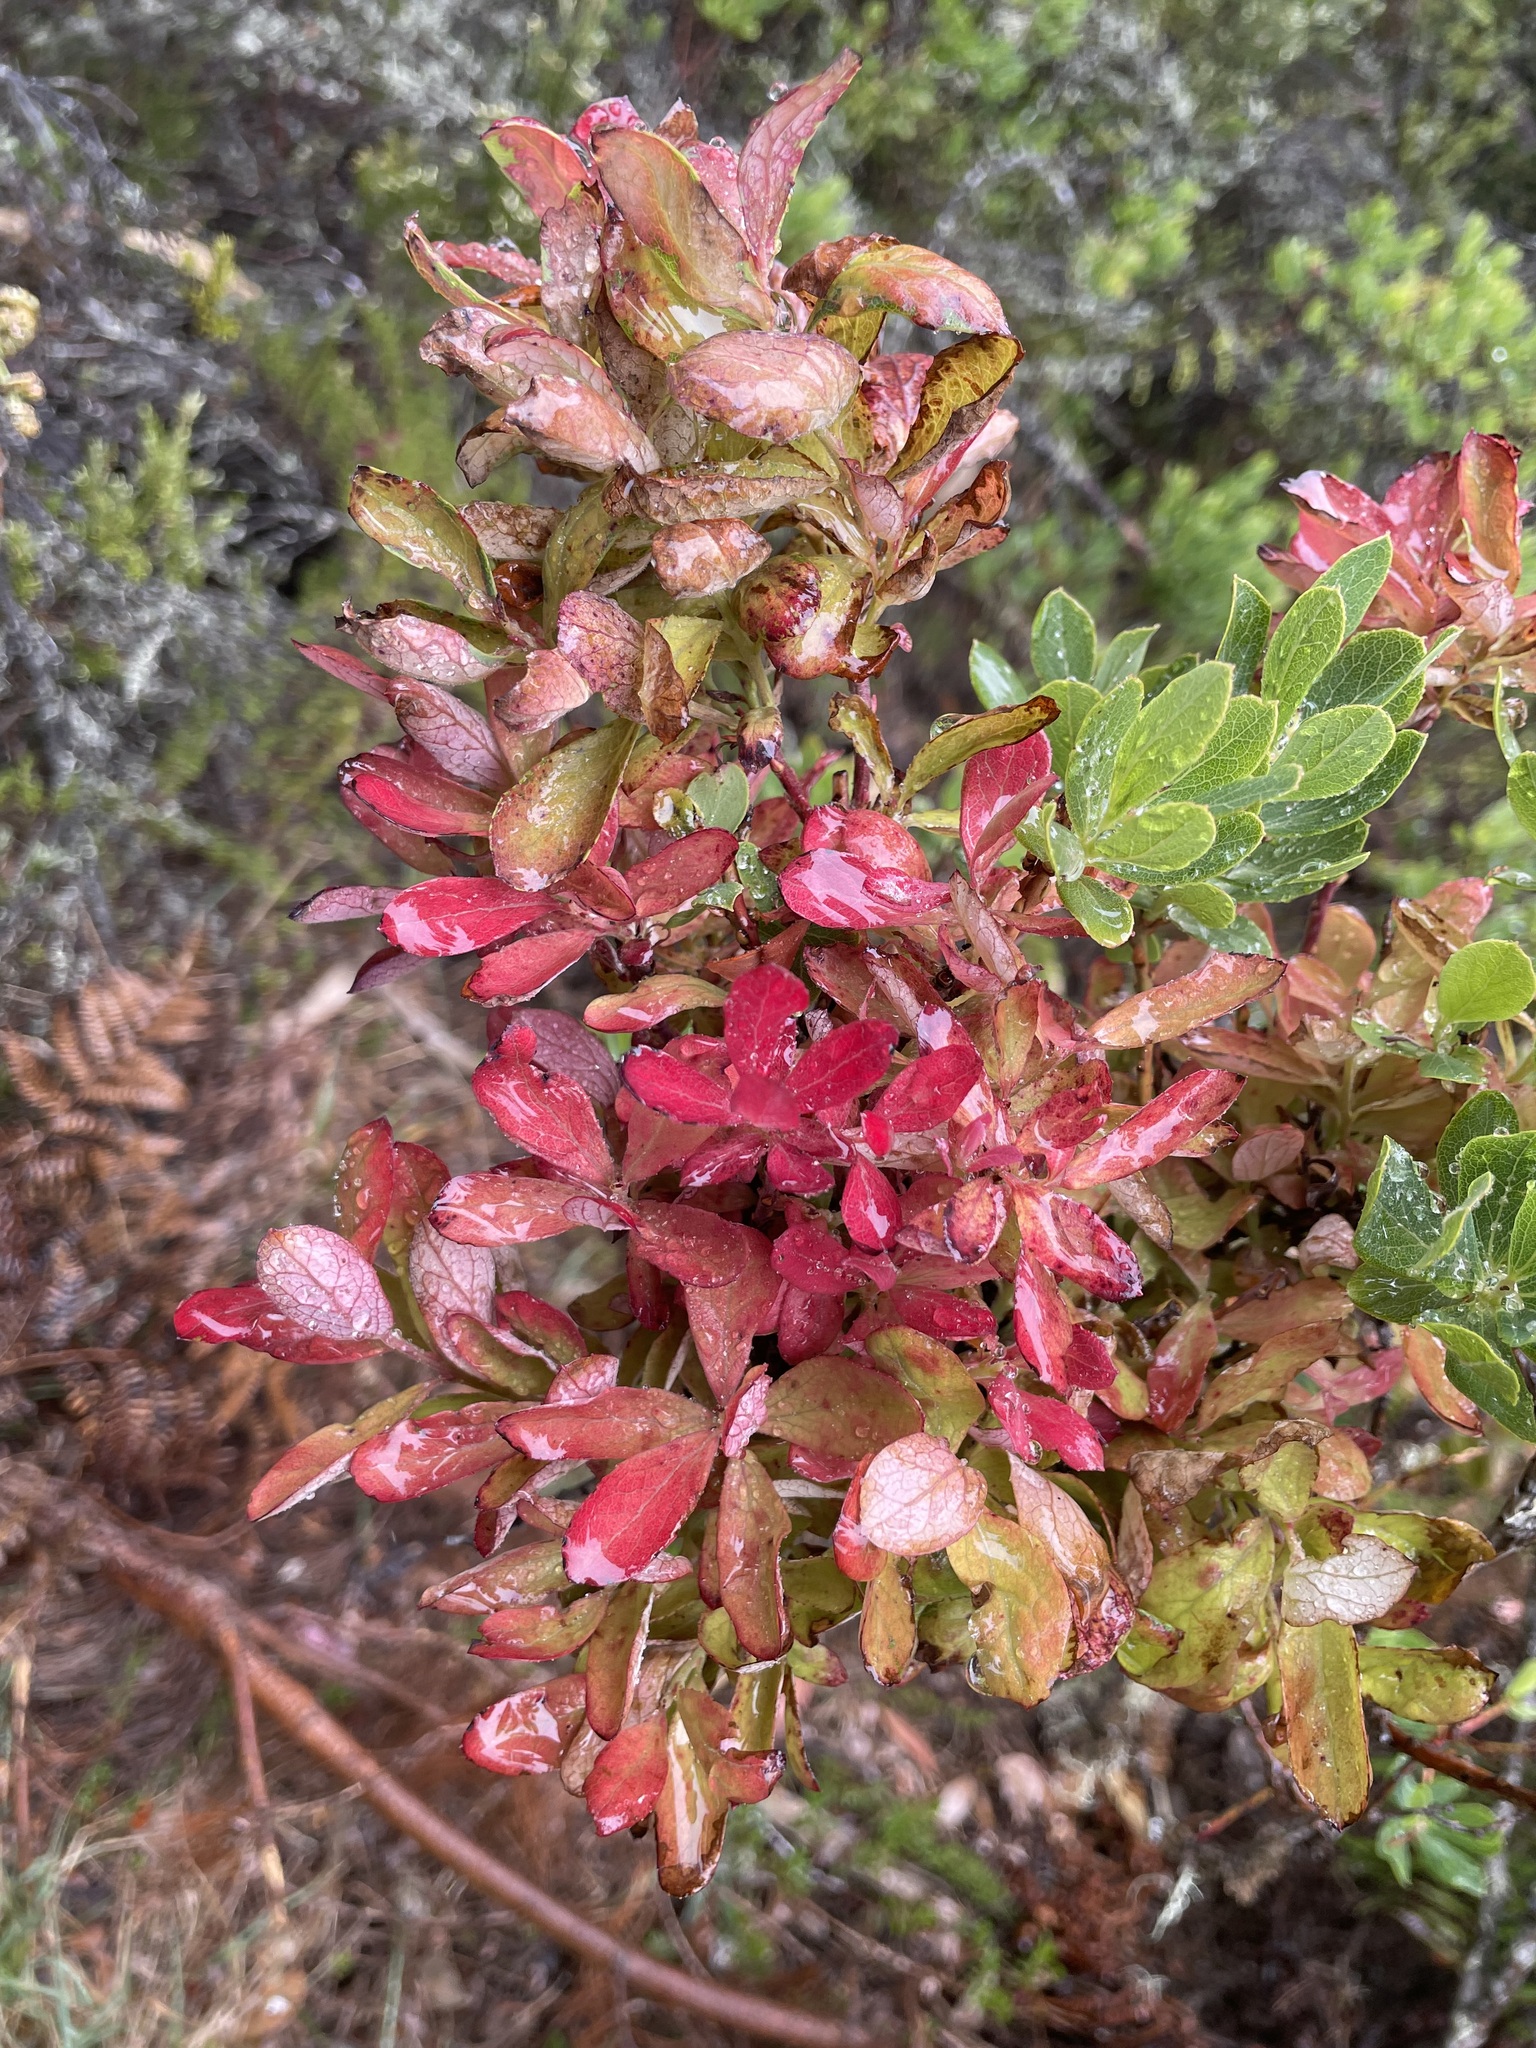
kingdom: Fungi
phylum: Basidiomycota
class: Exobasidiomycetes
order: Exobasidiales
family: Exobasidiaceae
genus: Exobasidium
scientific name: Exobasidium darwinii
